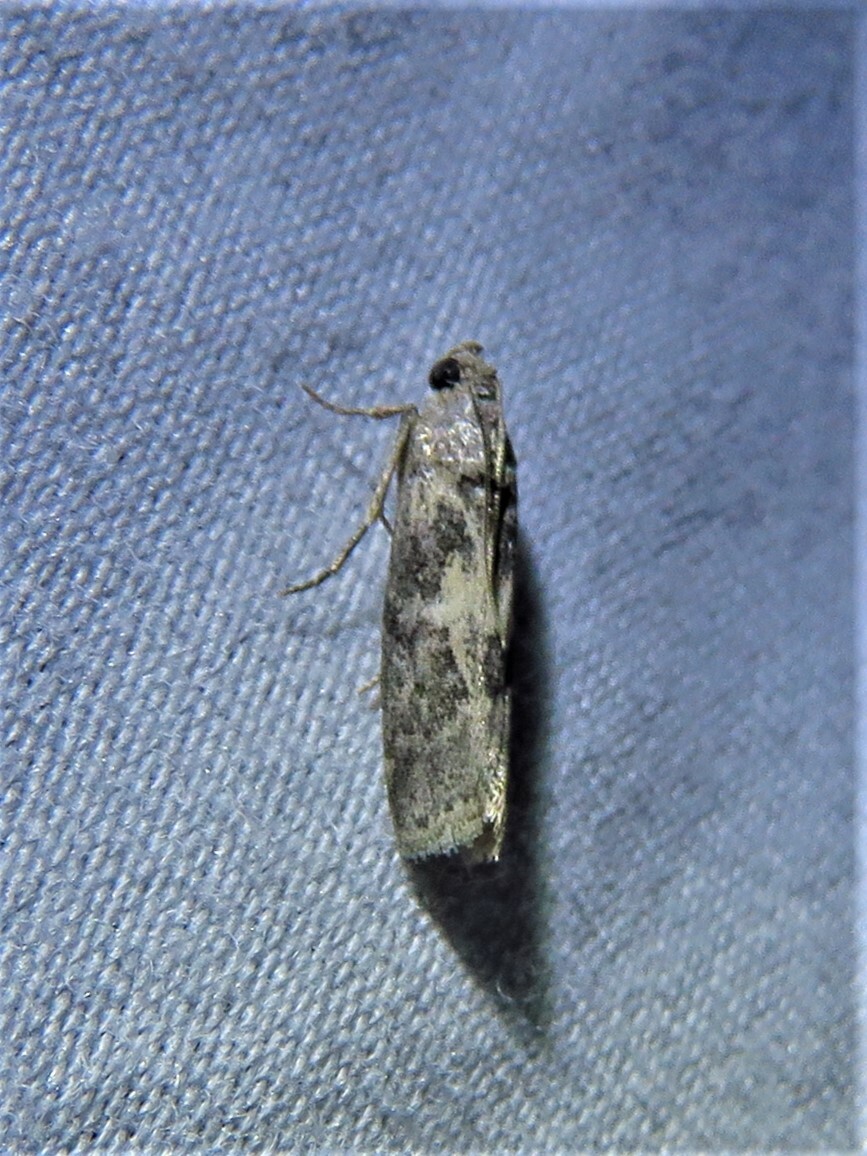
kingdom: Animalia
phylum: Arthropoda
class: Insecta
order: Lepidoptera
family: Pyralidae
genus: Tacoma
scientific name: Tacoma feriella
